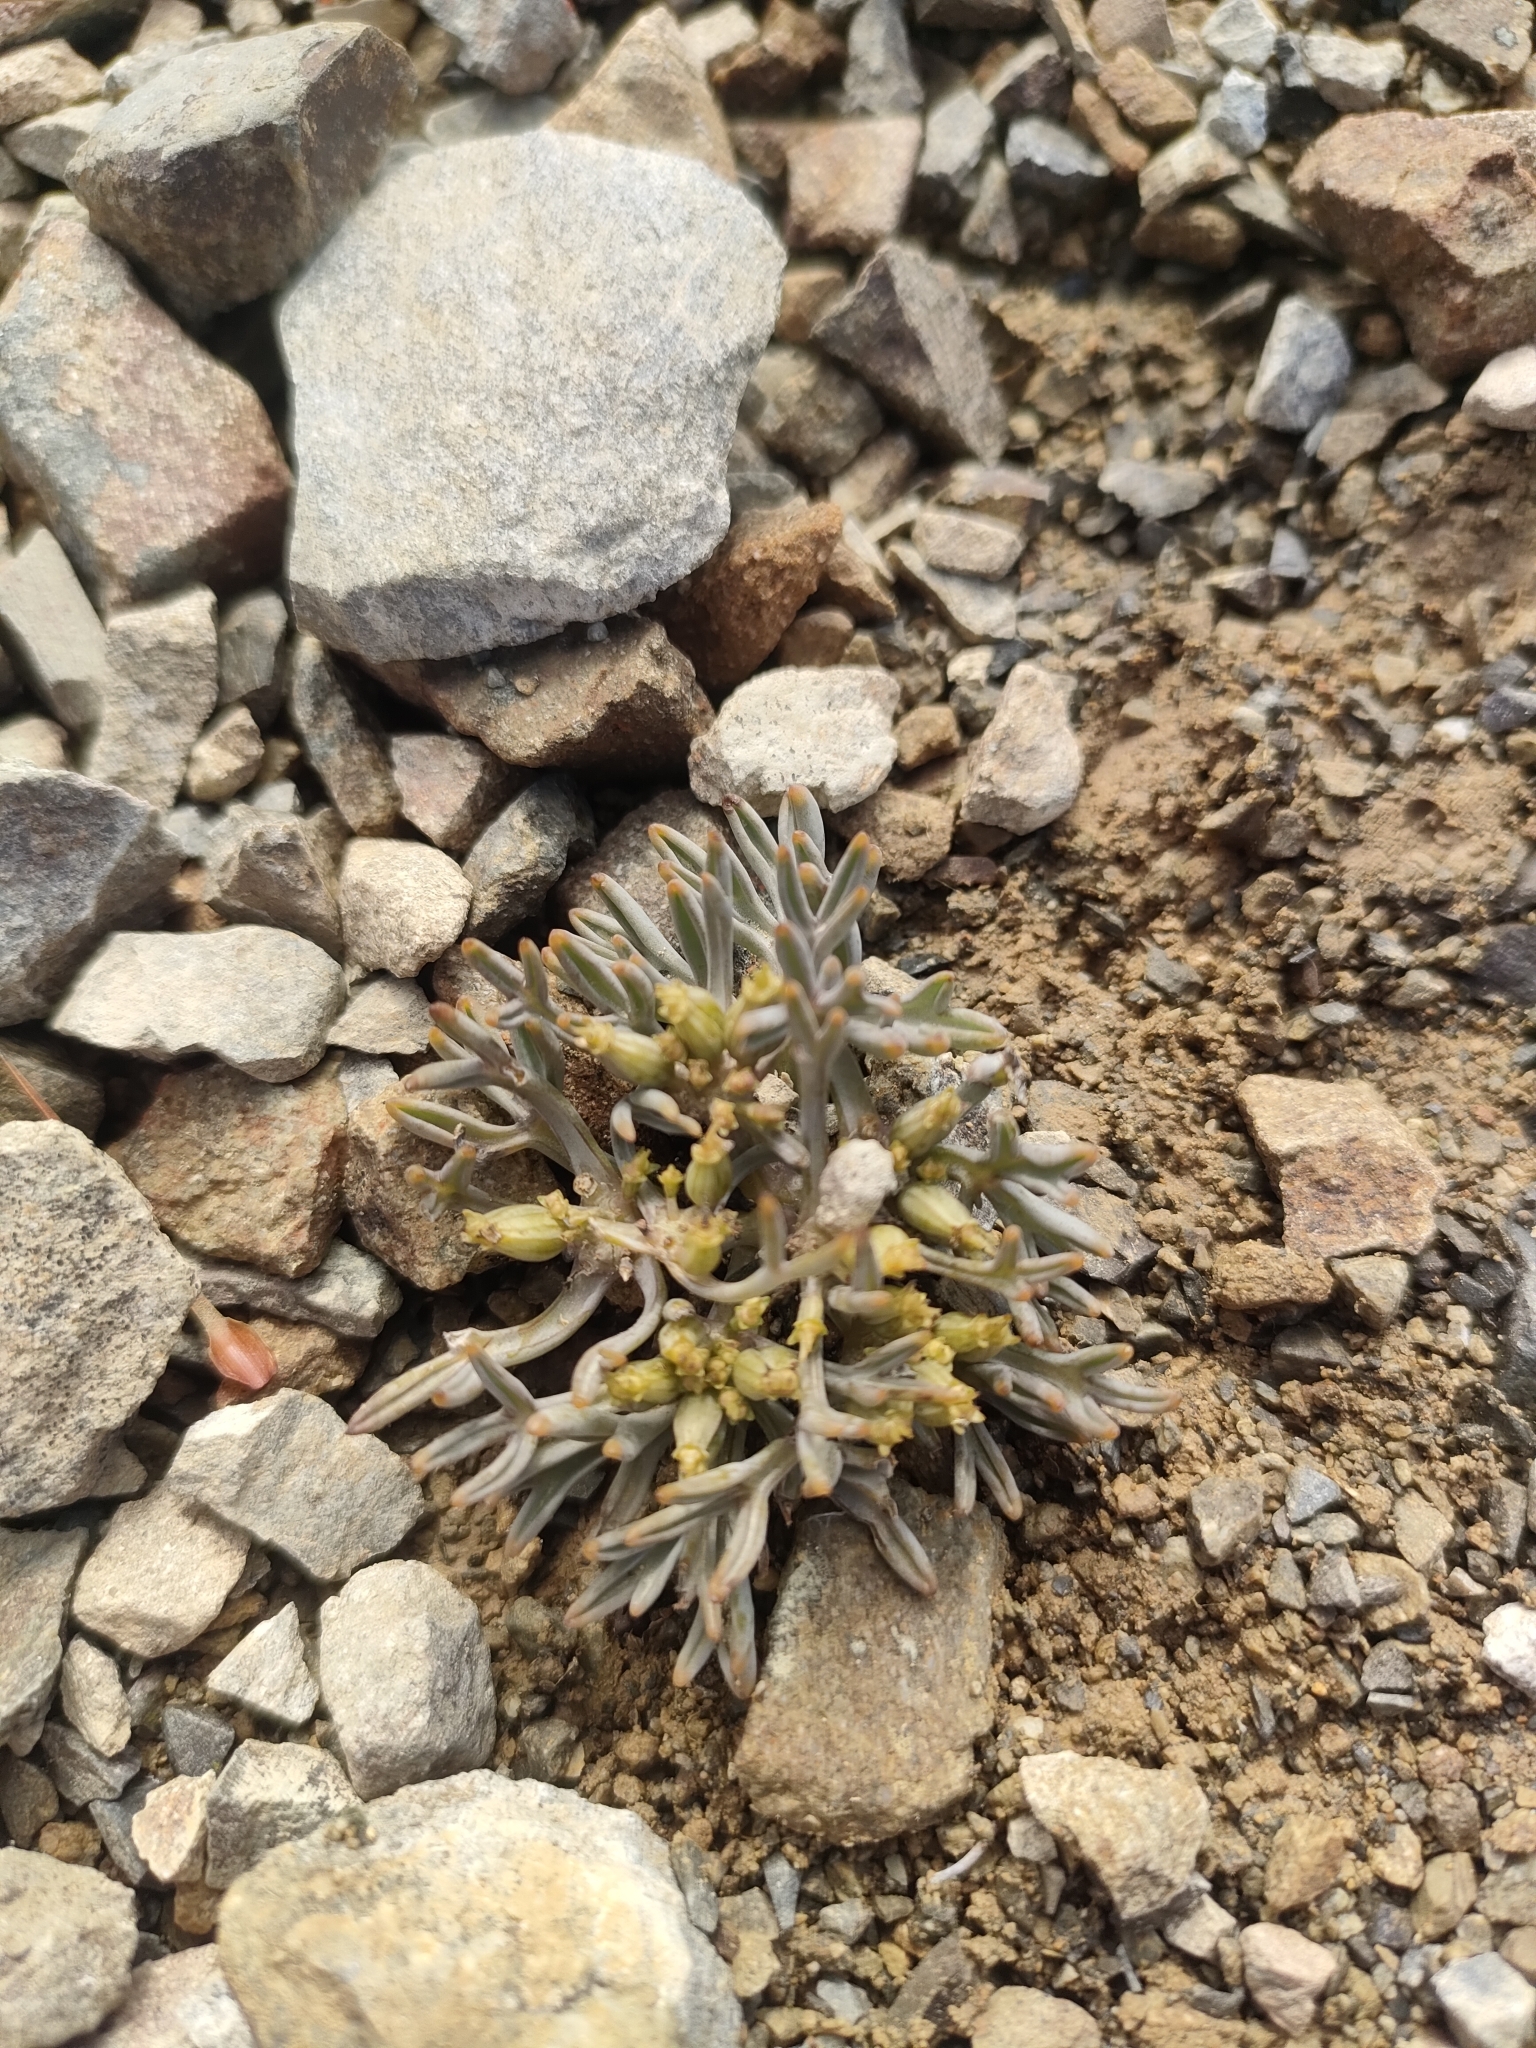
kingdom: Plantae
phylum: Tracheophyta
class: Magnoliopsida
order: Apiales
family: Apiaceae
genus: Lignocarpa
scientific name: Lignocarpa carnosula
